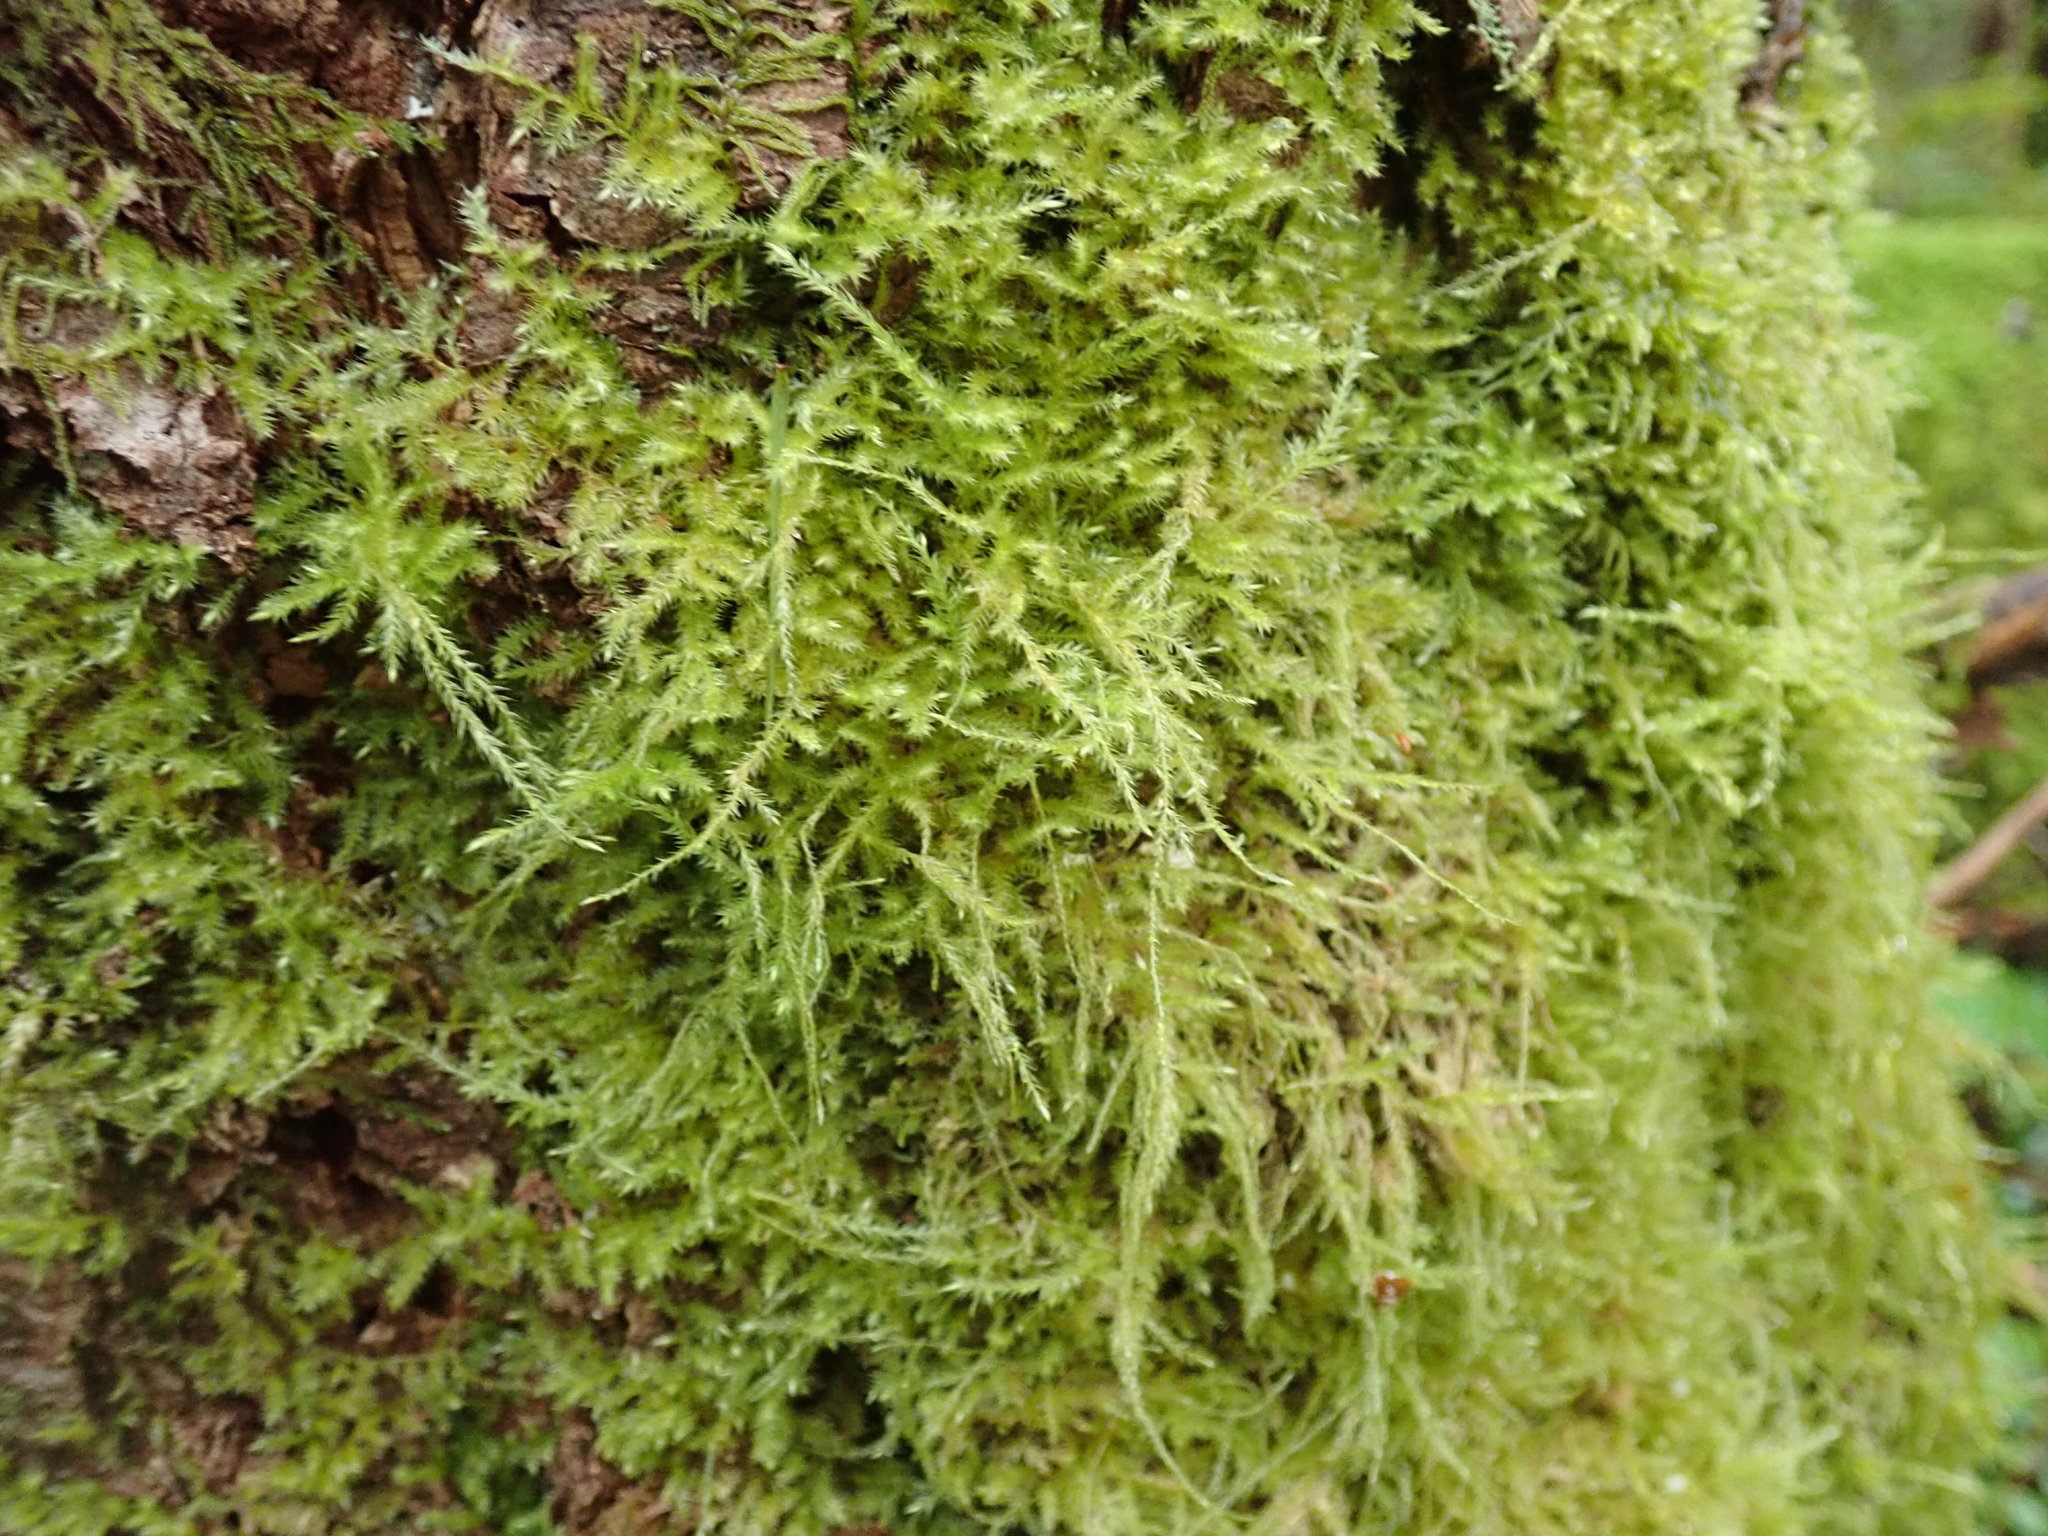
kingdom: Plantae
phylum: Bryophyta
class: Bryopsida
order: Hypnales
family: Lembophyllaceae
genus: Pseudisothecium
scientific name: Pseudisothecium stoloniferum
